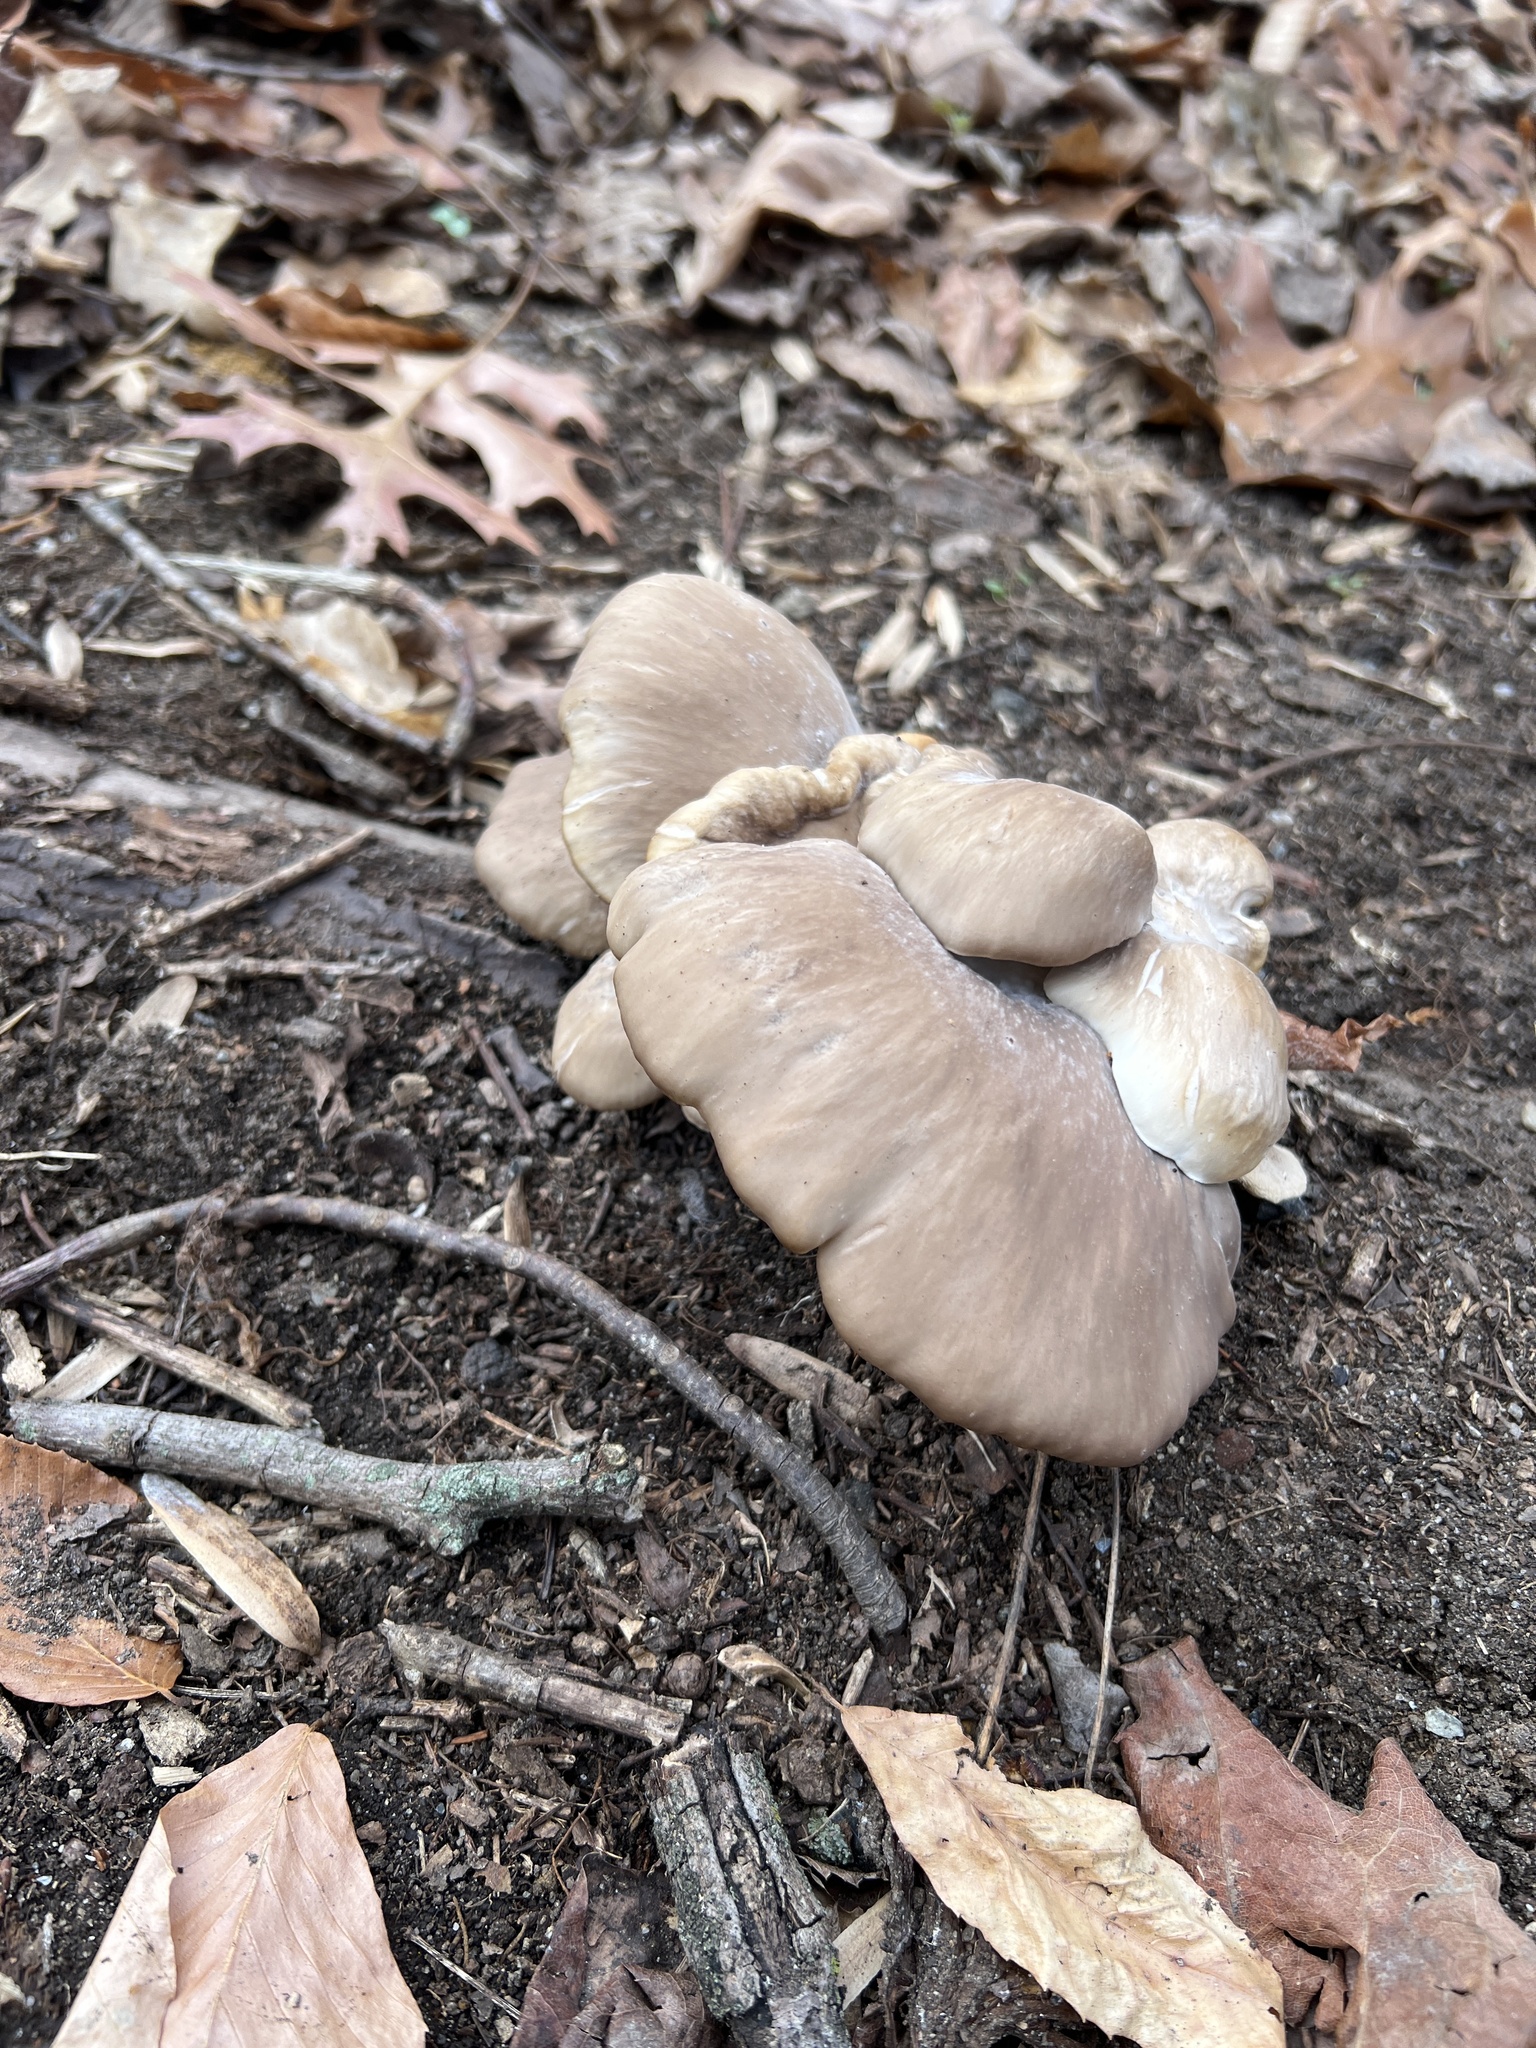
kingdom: Fungi
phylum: Basidiomycota
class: Agaricomycetes
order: Agaricales
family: Pleurotaceae
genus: Pleurotus
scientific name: Pleurotus ostreatus
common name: Oyster mushroom
